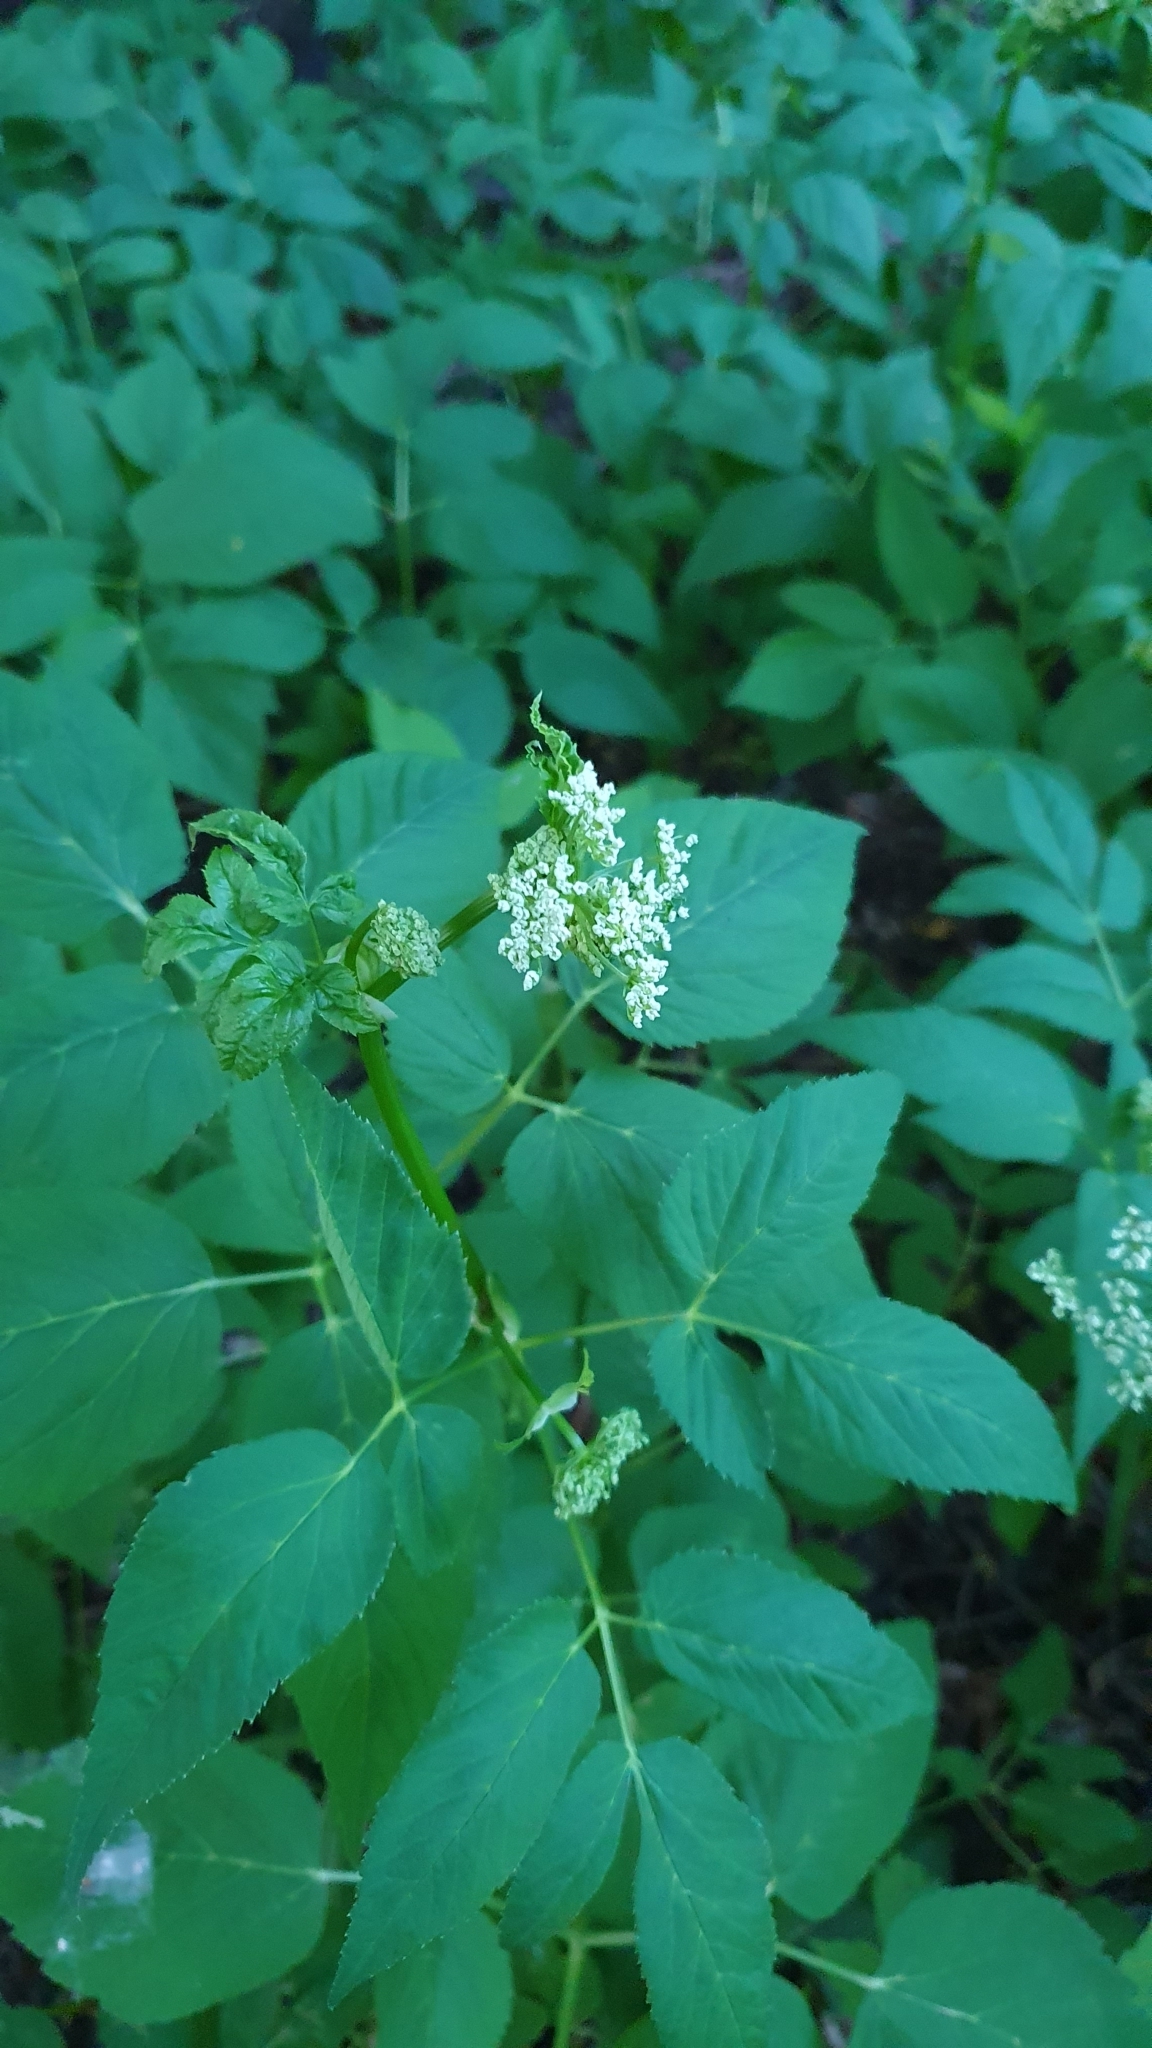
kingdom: Plantae
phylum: Tracheophyta
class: Magnoliopsida
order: Apiales
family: Apiaceae
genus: Aegopodium
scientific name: Aegopodium podagraria
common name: Ground-elder
